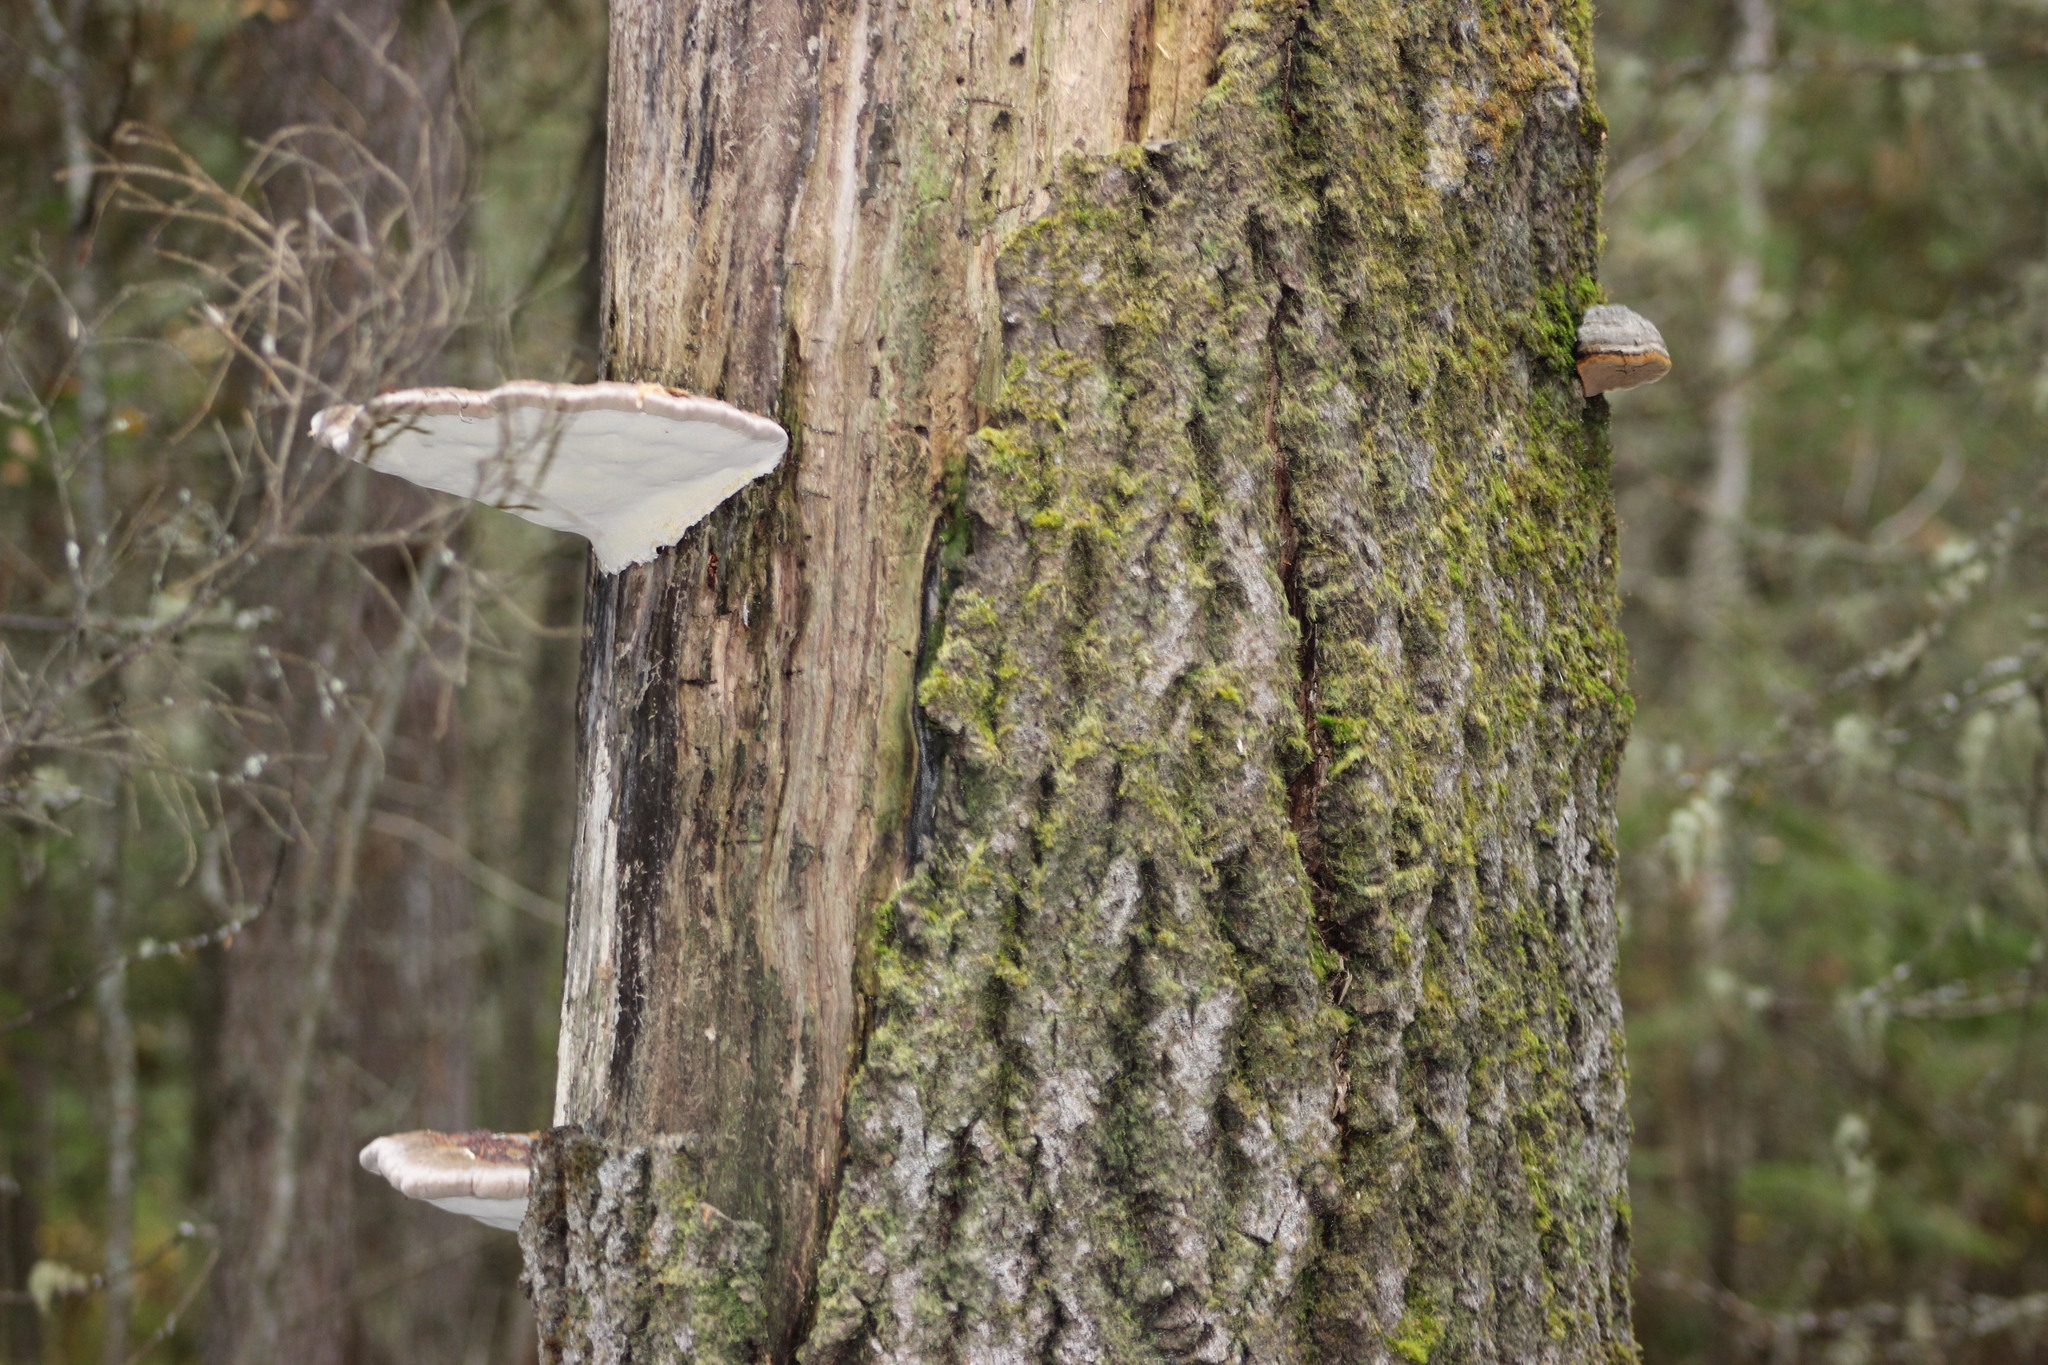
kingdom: Fungi
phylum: Basidiomycota
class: Agaricomycetes
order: Polyporales
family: Polyporaceae
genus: Ganoderma
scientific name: Ganoderma applanatum
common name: Artist's bracket
